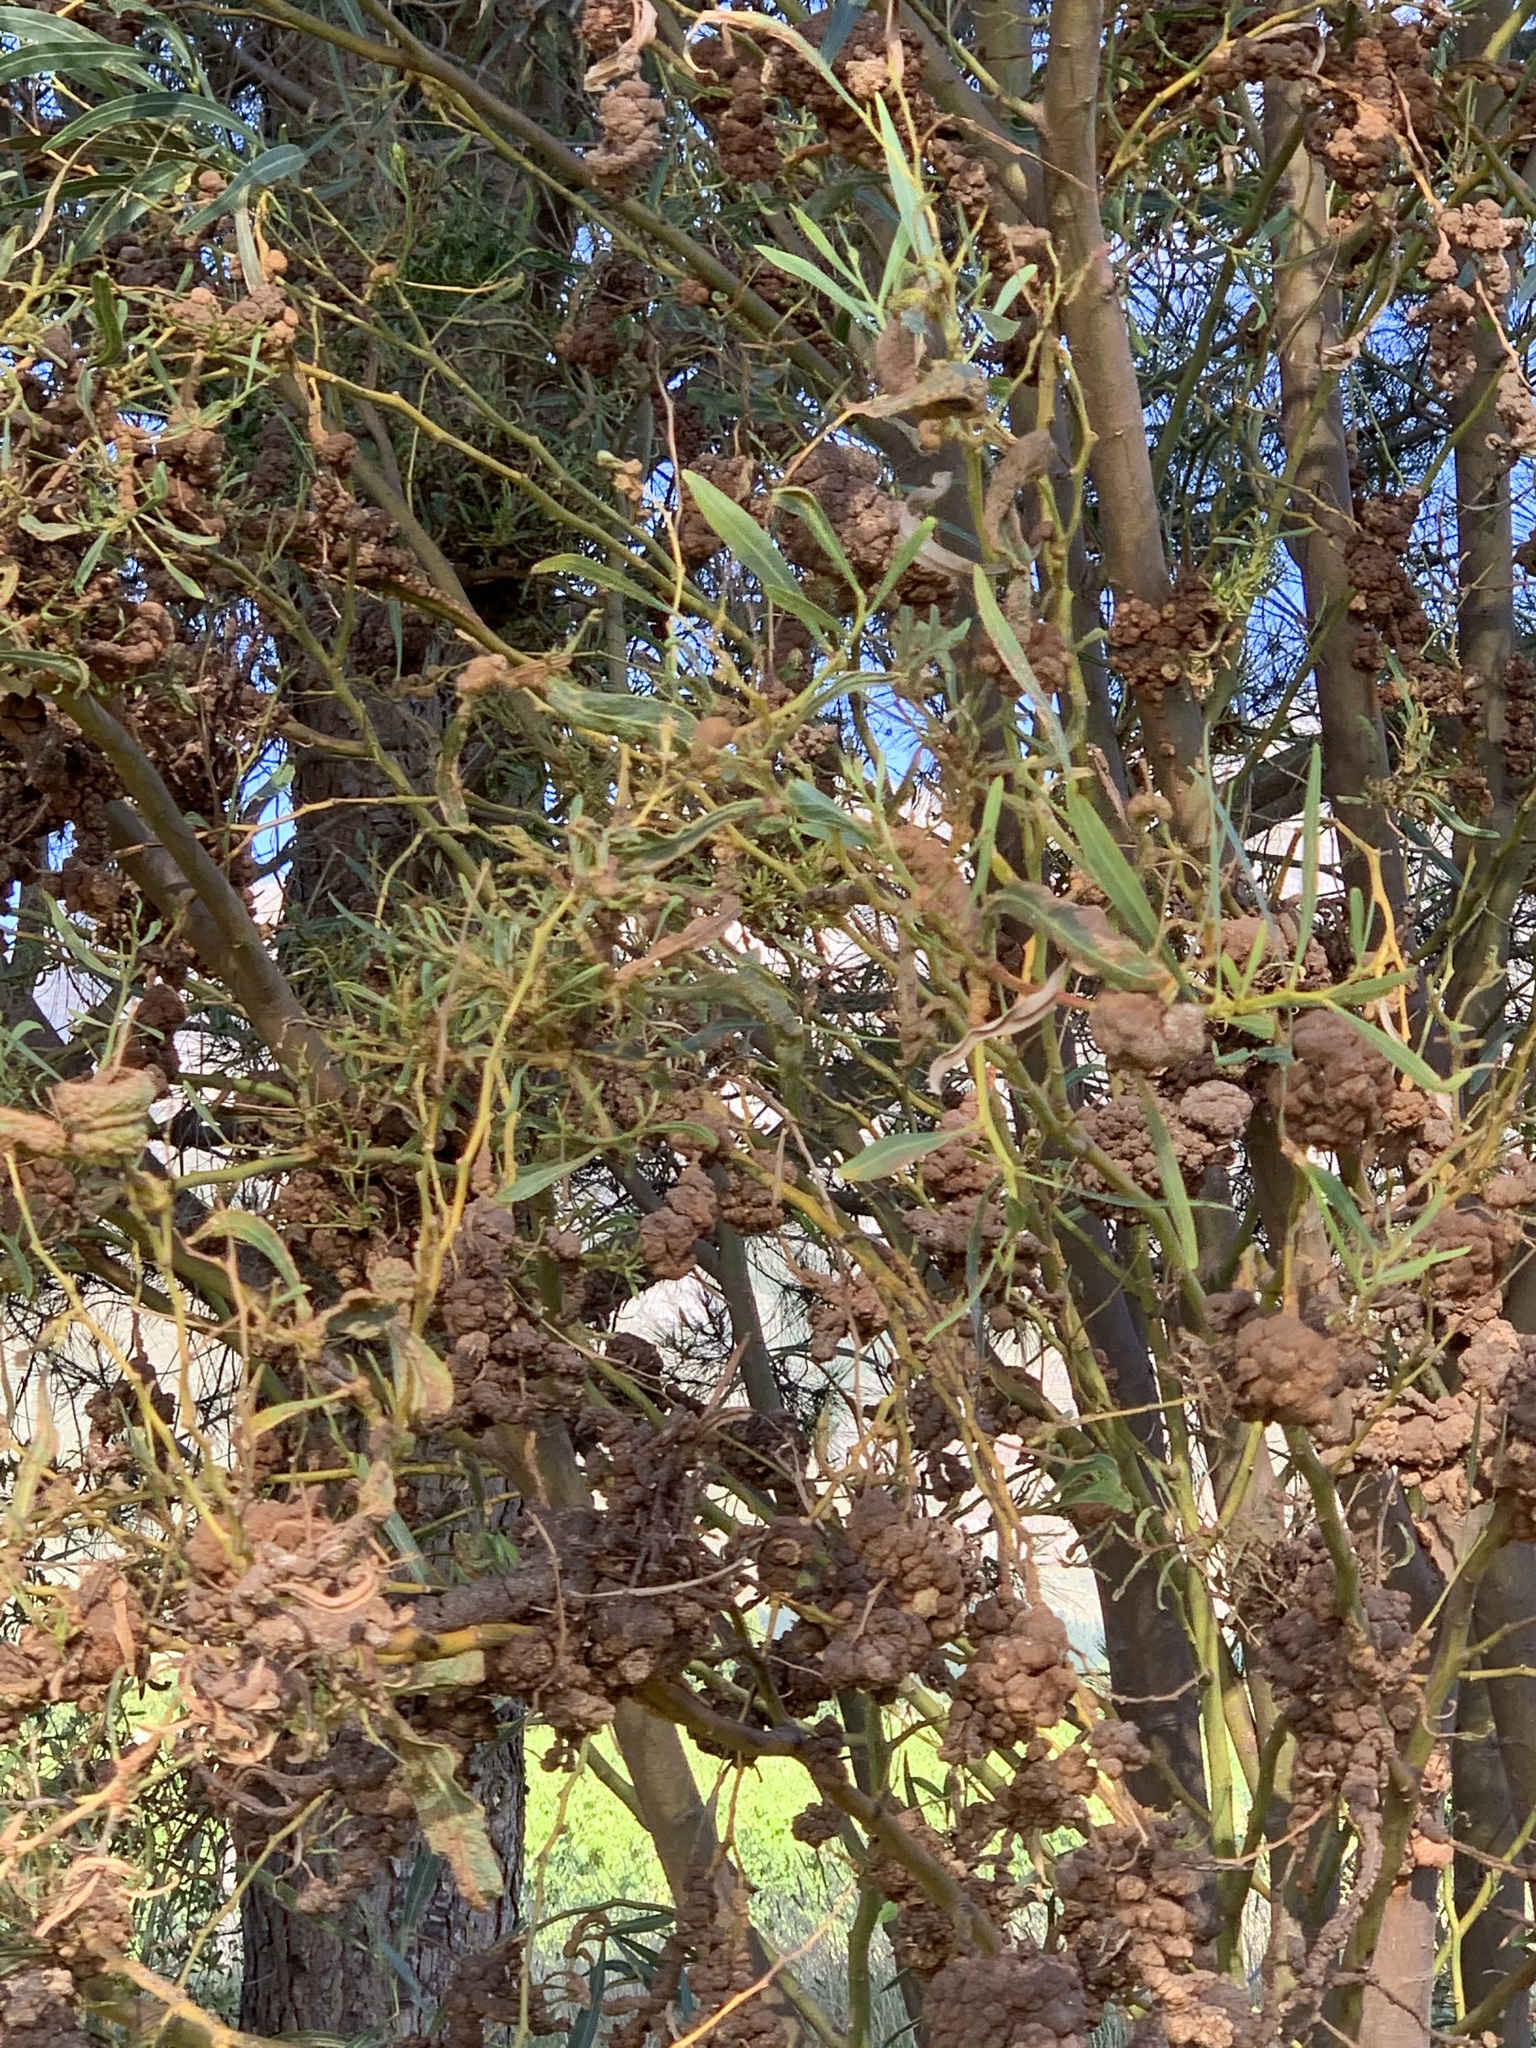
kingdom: Fungi
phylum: Basidiomycota
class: Pucciniomycetes
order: Pucciniales
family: Uromycladiaceae
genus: Uromycladium
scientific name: Uromycladium morrisii
